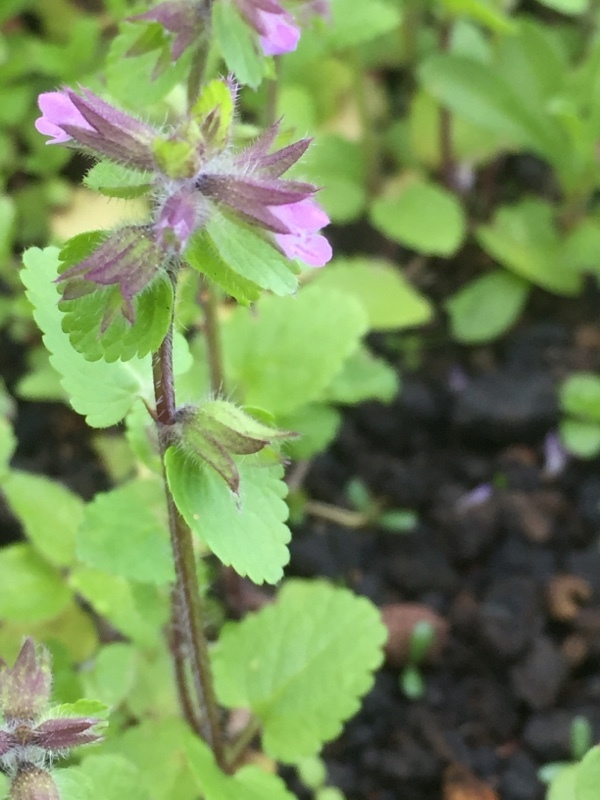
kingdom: Plantae
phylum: Tracheophyta
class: Magnoliopsida
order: Lamiales
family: Lamiaceae
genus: Stachys
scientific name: Stachys arvensis
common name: Field woundwort
